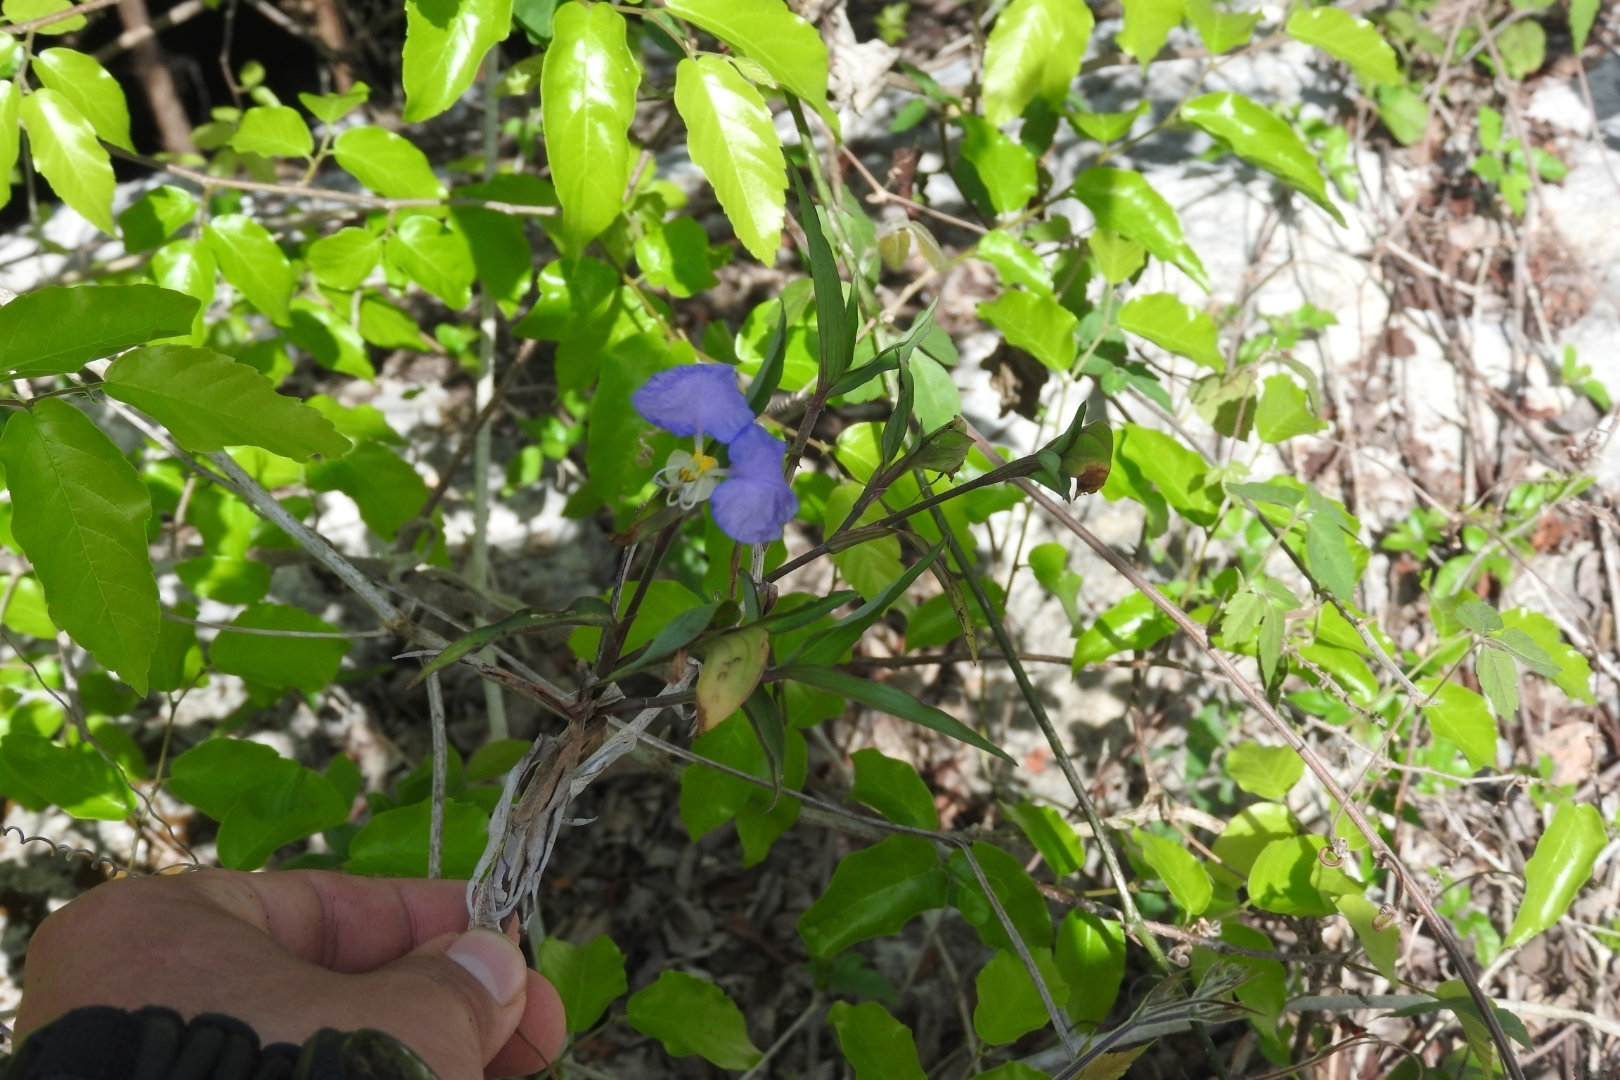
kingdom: Plantae
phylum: Tracheophyta
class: Liliopsida
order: Commelinales
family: Commelinaceae
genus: Commelina
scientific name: Commelina erecta
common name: Blousel blommetjie
